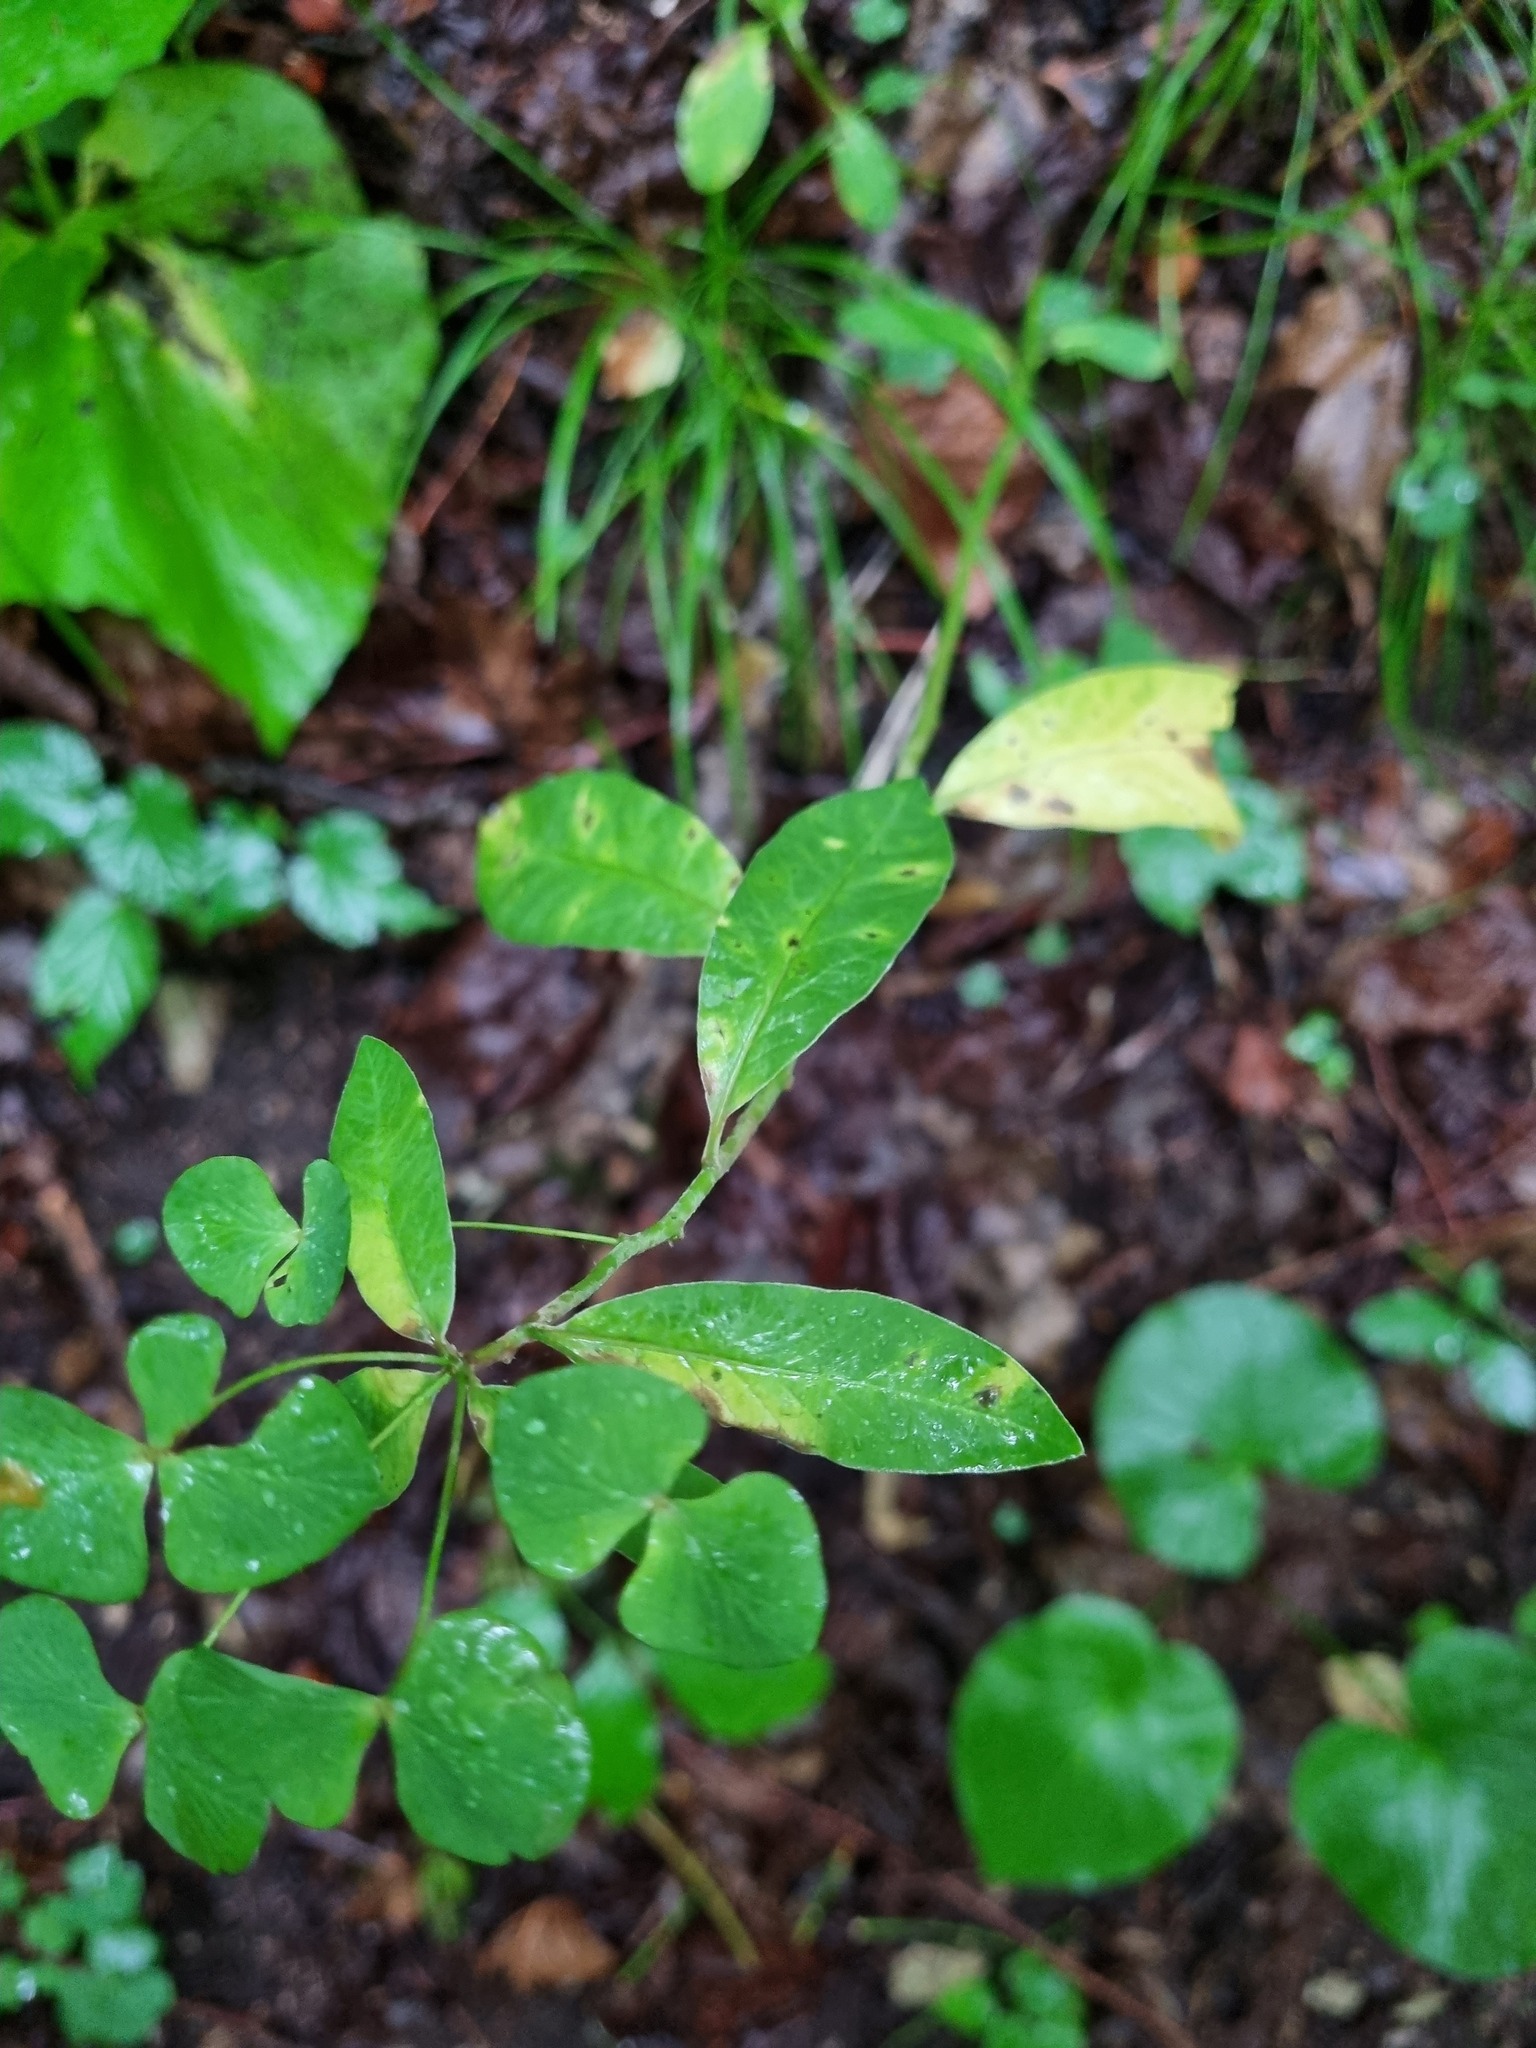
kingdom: Plantae
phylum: Tracheophyta
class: Magnoliopsida
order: Malpighiales
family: Euphorbiaceae
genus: Euphorbia
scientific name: Euphorbia squamosa
